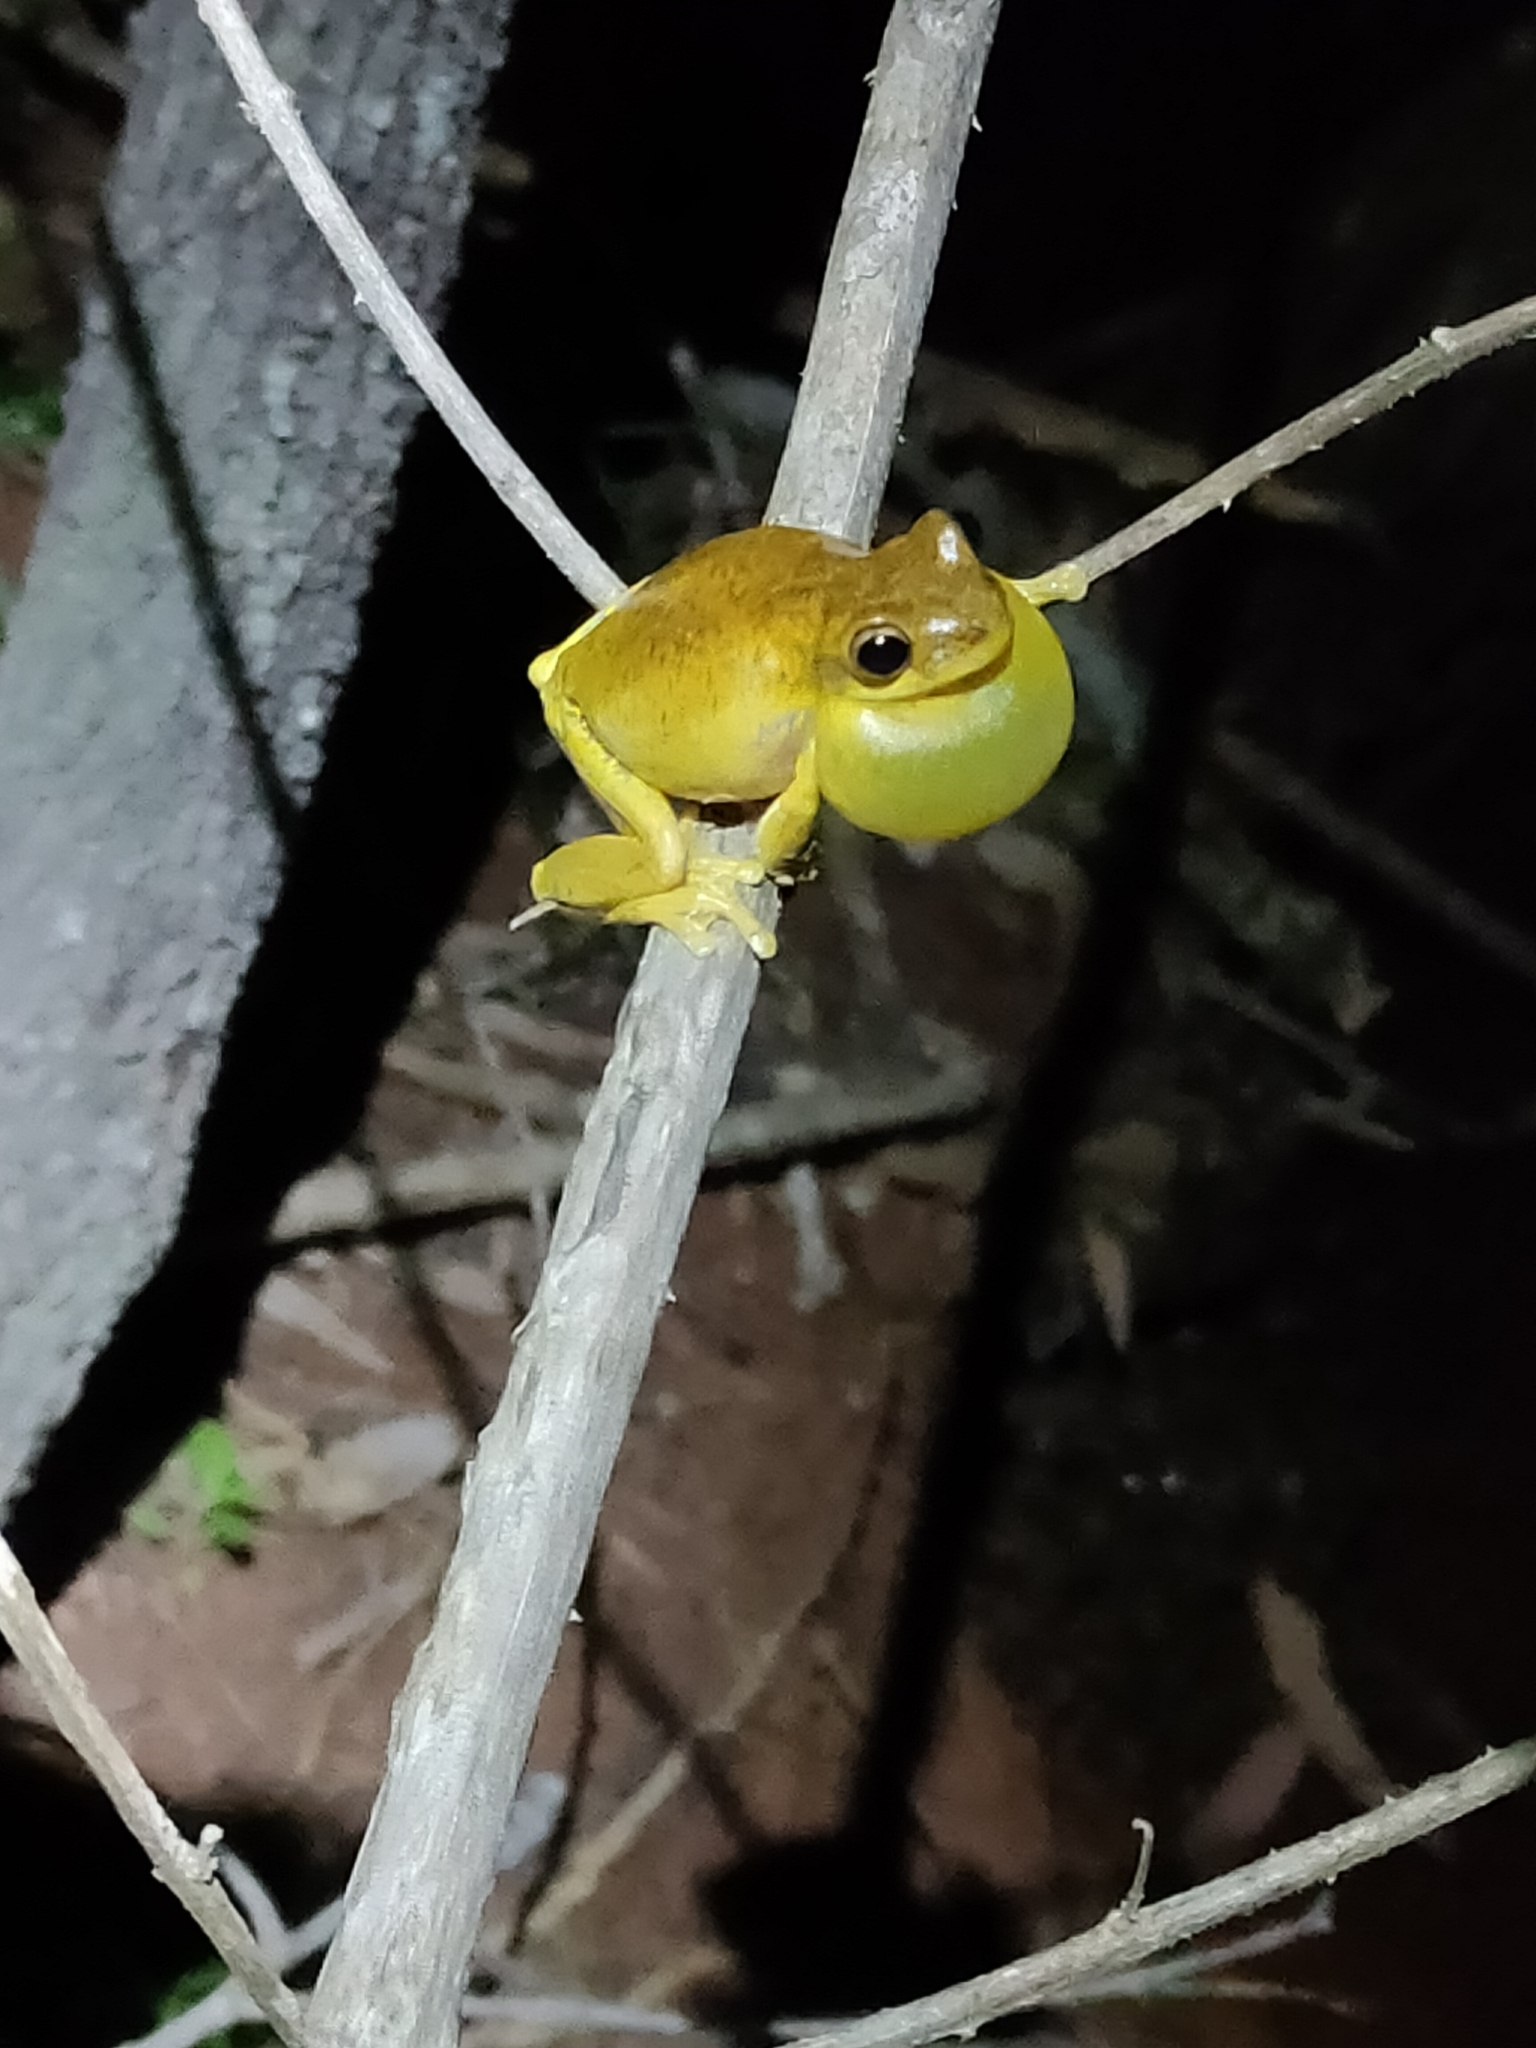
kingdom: Animalia
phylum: Chordata
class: Amphibia
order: Anura
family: Pelodryadidae
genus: Litoria
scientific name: Litoria tyleri
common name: Laughing tree frog
